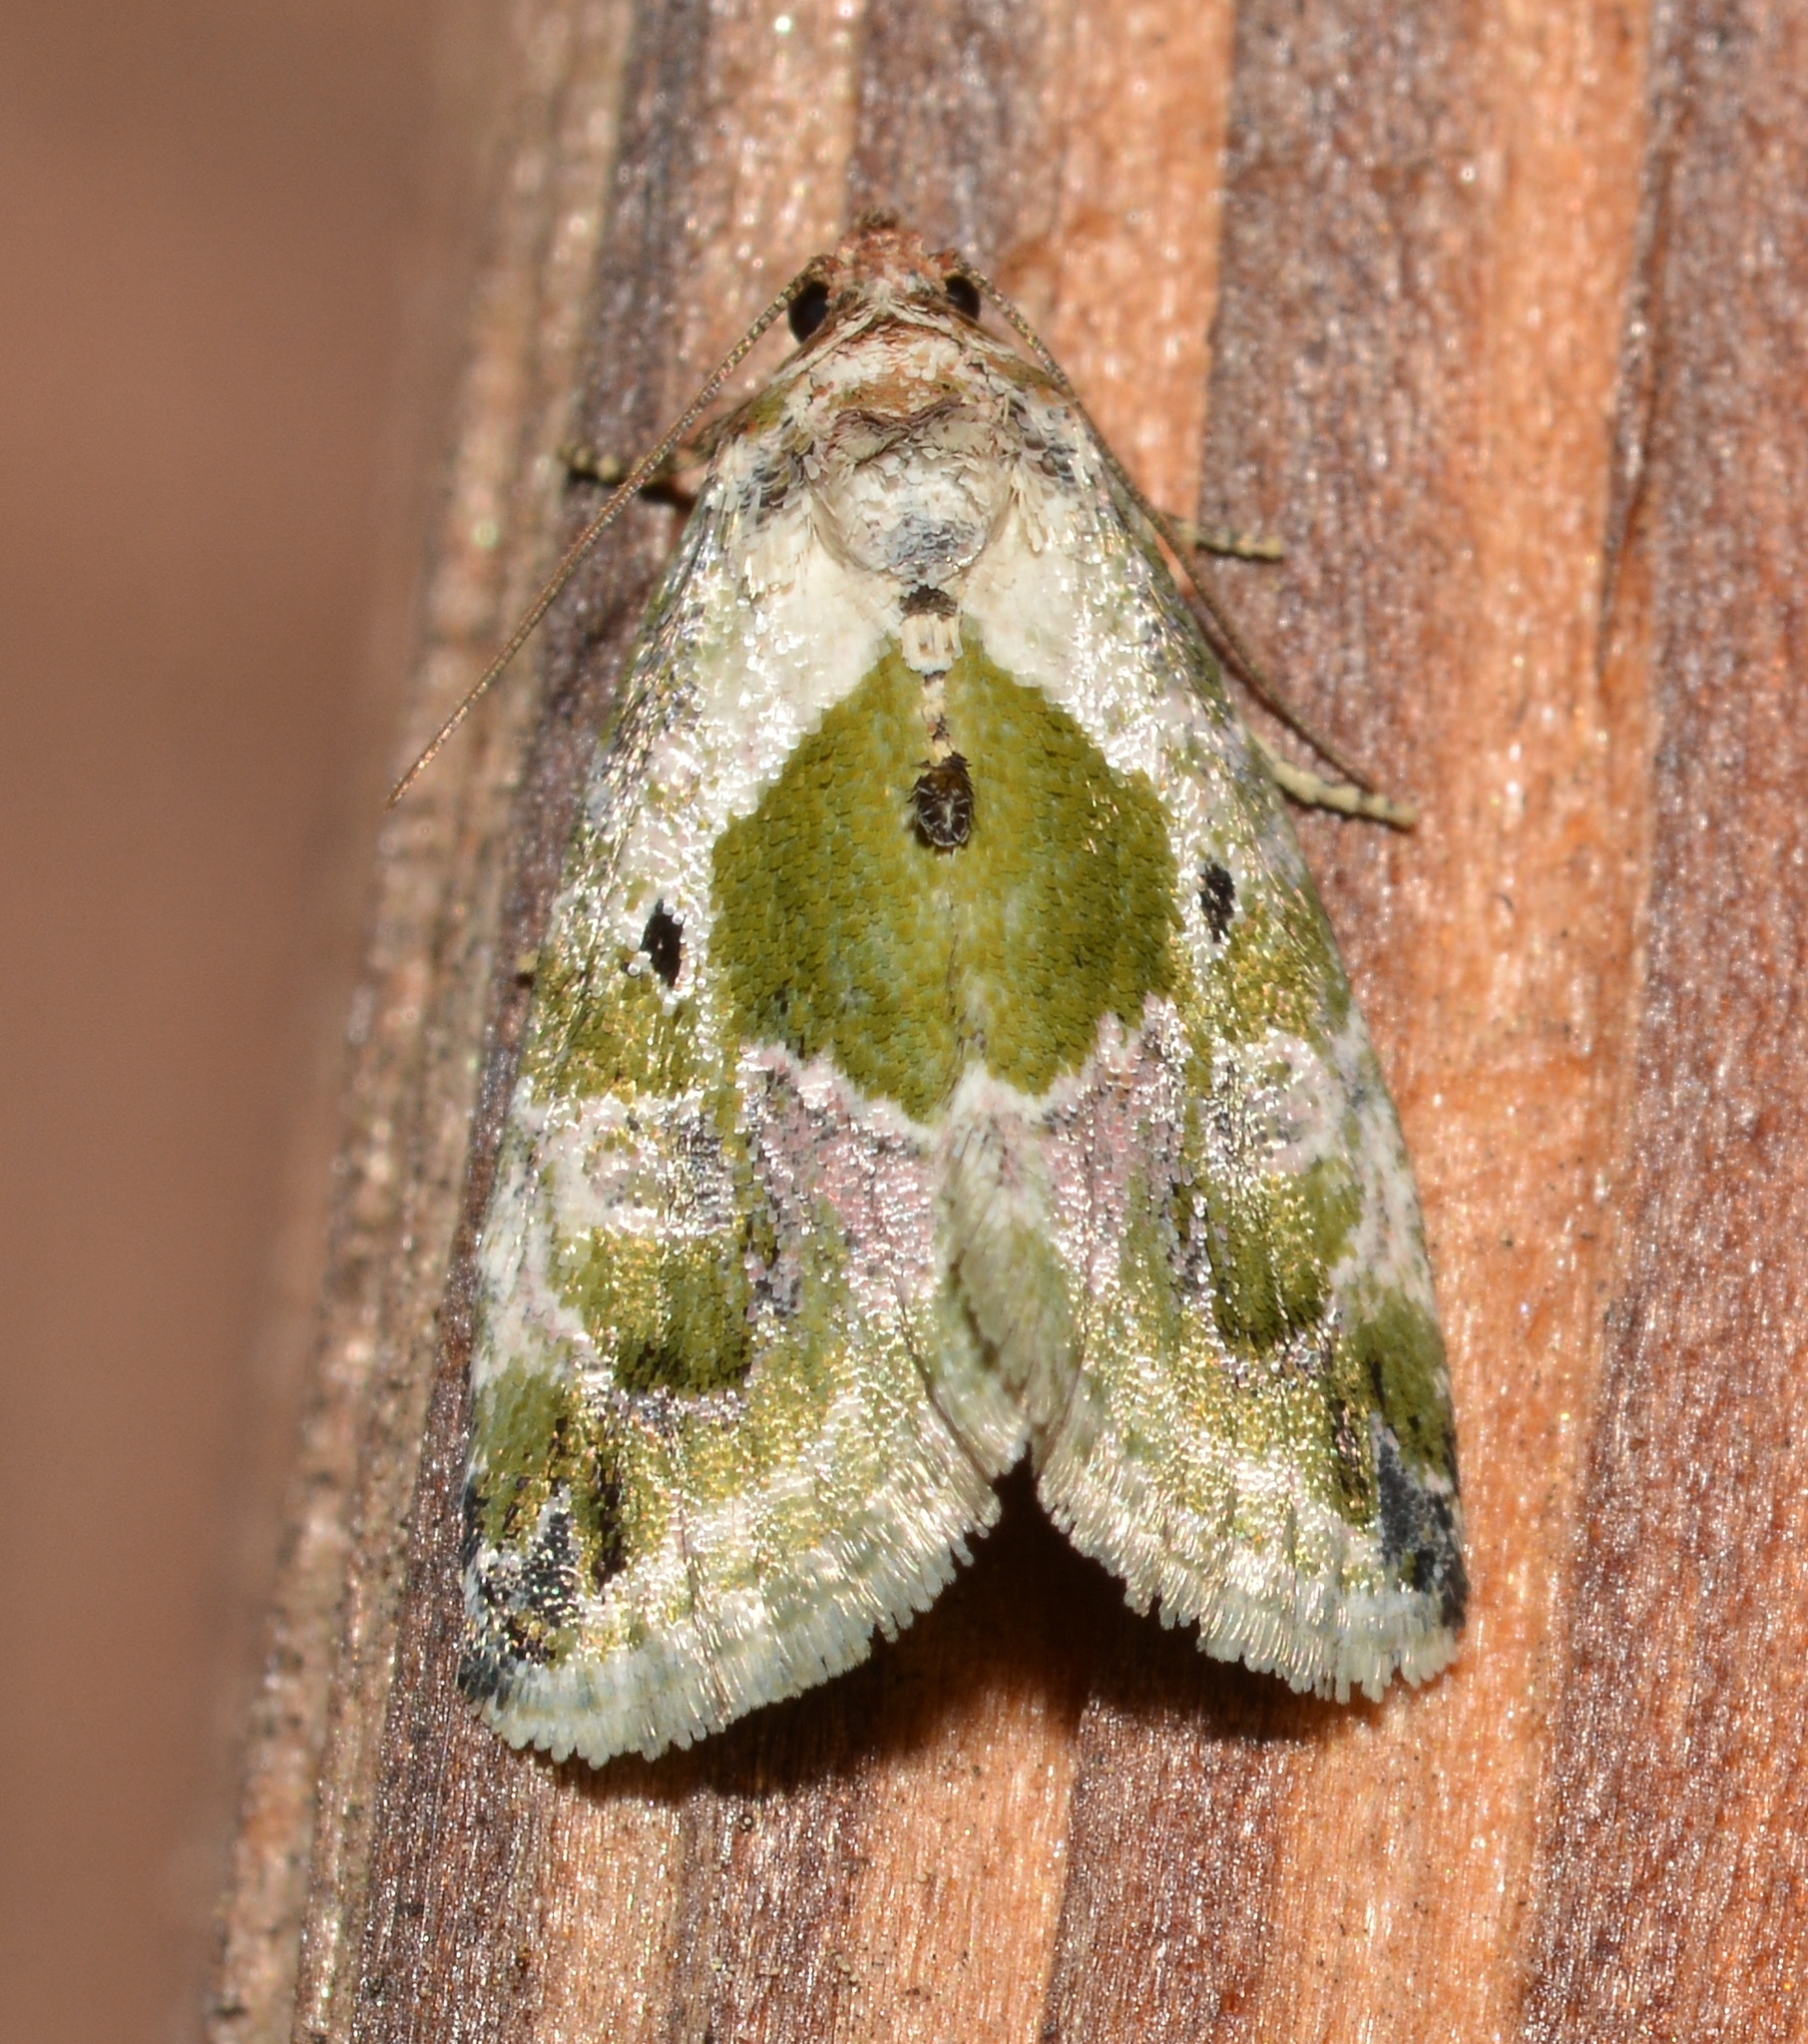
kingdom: Animalia
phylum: Arthropoda
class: Insecta
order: Lepidoptera
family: Noctuidae
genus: Maliattha
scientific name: Maliattha synochitis
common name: Black-dotted glyph
